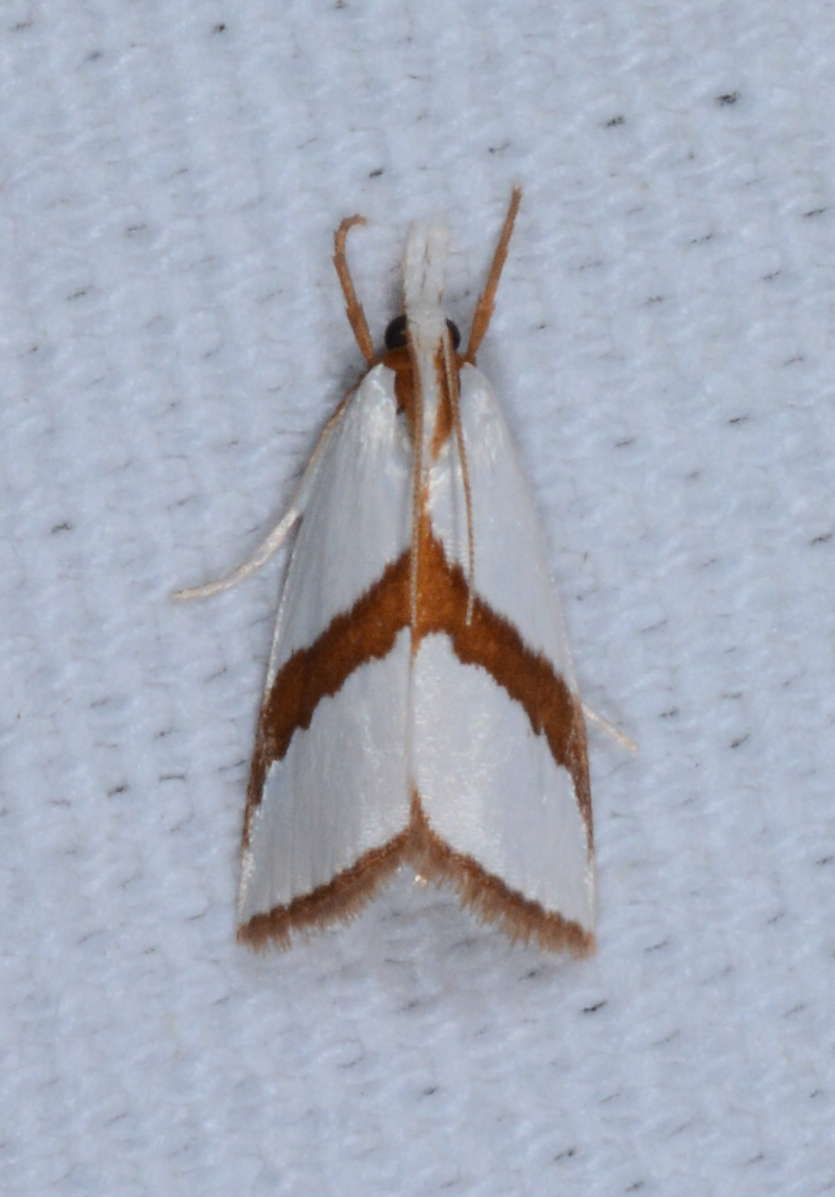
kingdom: Animalia
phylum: Arthropoda
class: Insecta
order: Lepidoptera
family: Crambidae
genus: Vaxi
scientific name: Vaxi critica
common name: Straight-lined vaxi moth
